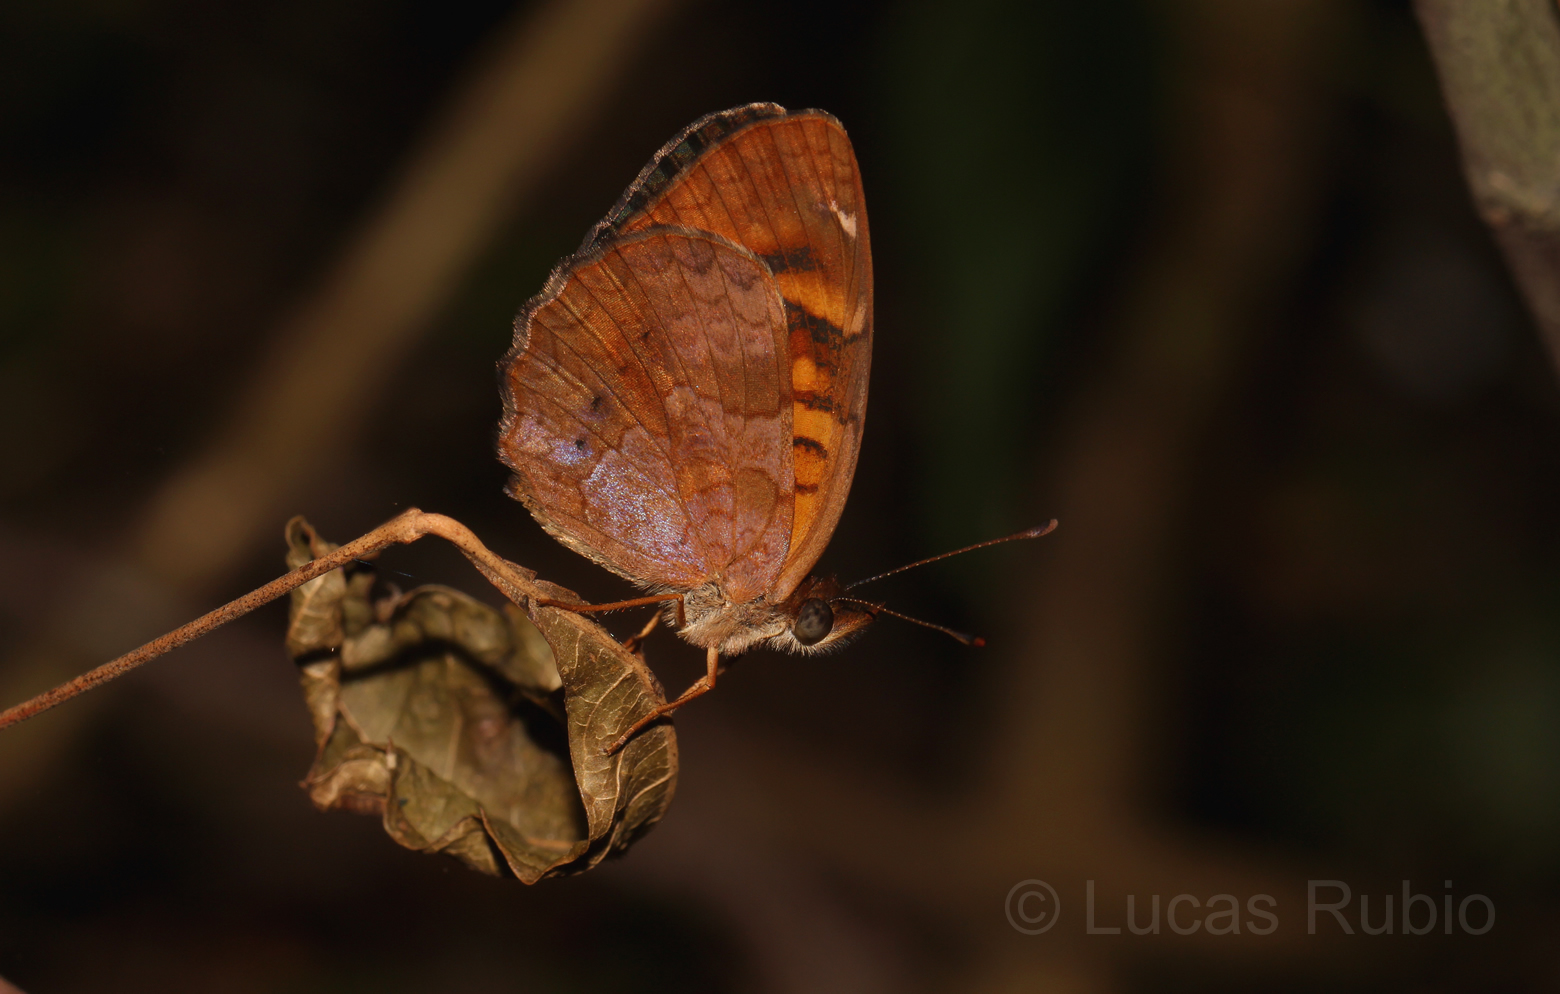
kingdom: Animalia
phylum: Arthropoda
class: Insecta
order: Lepidoptera
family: Nymphalidae
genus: Ortilia
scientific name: Ortilia velica
